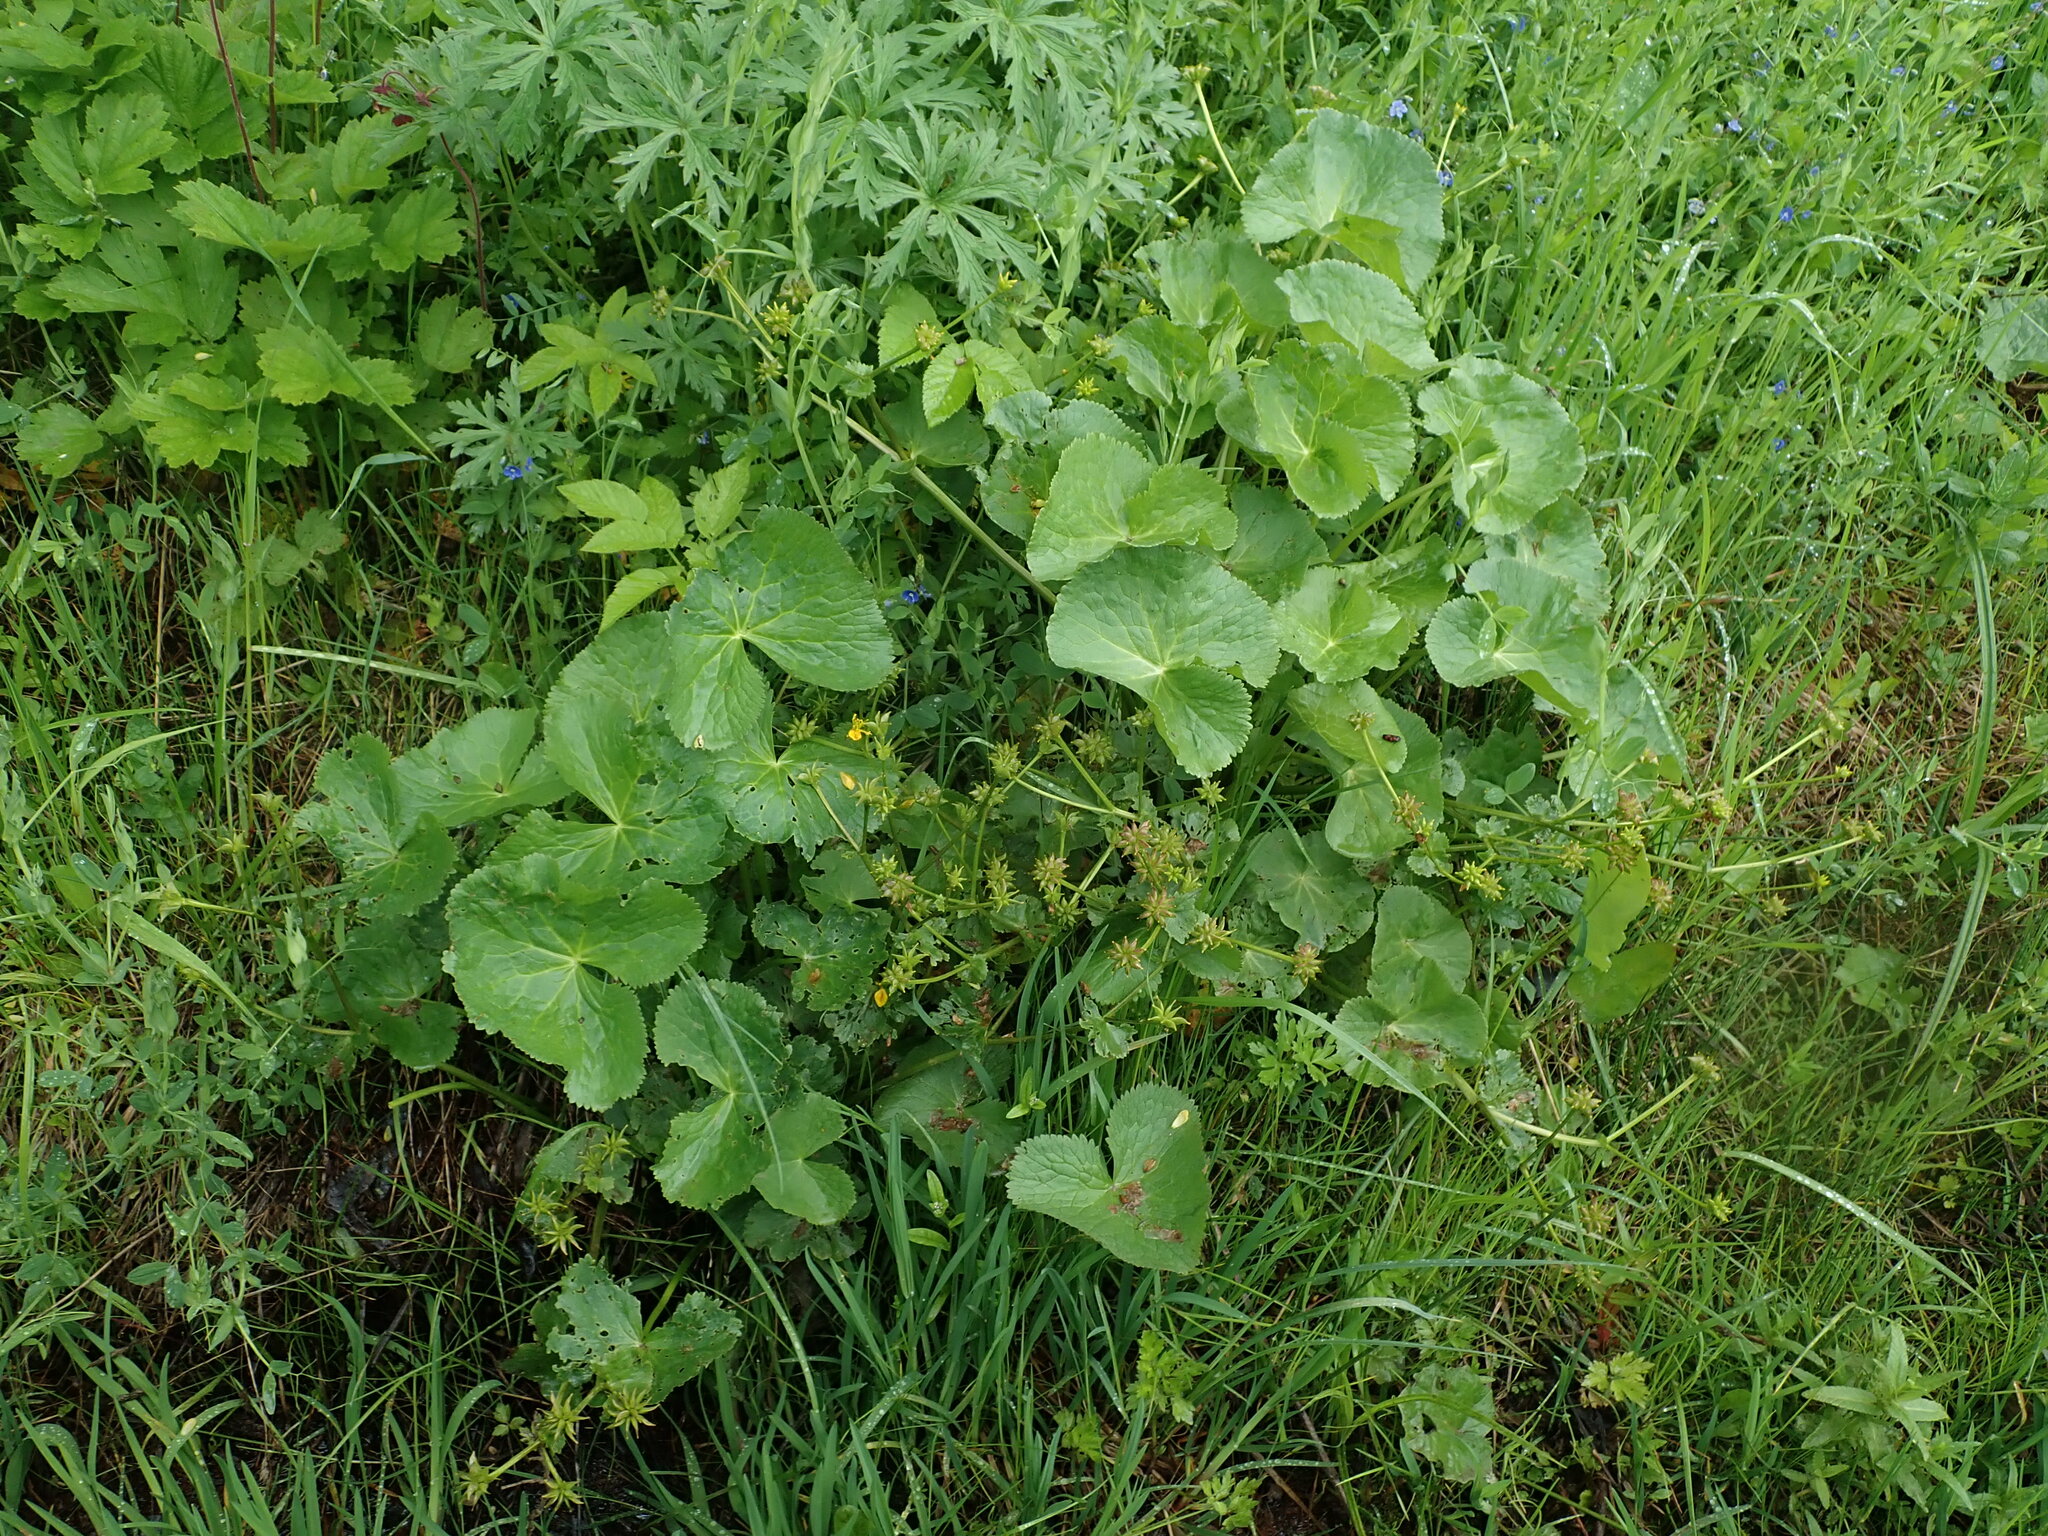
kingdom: Plantae
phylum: Tracheophyta
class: Magnoliopsida
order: Ranunculales
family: Ranunculaceae
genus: Caltha
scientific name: Caltha palustris
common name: Marsh marigold
